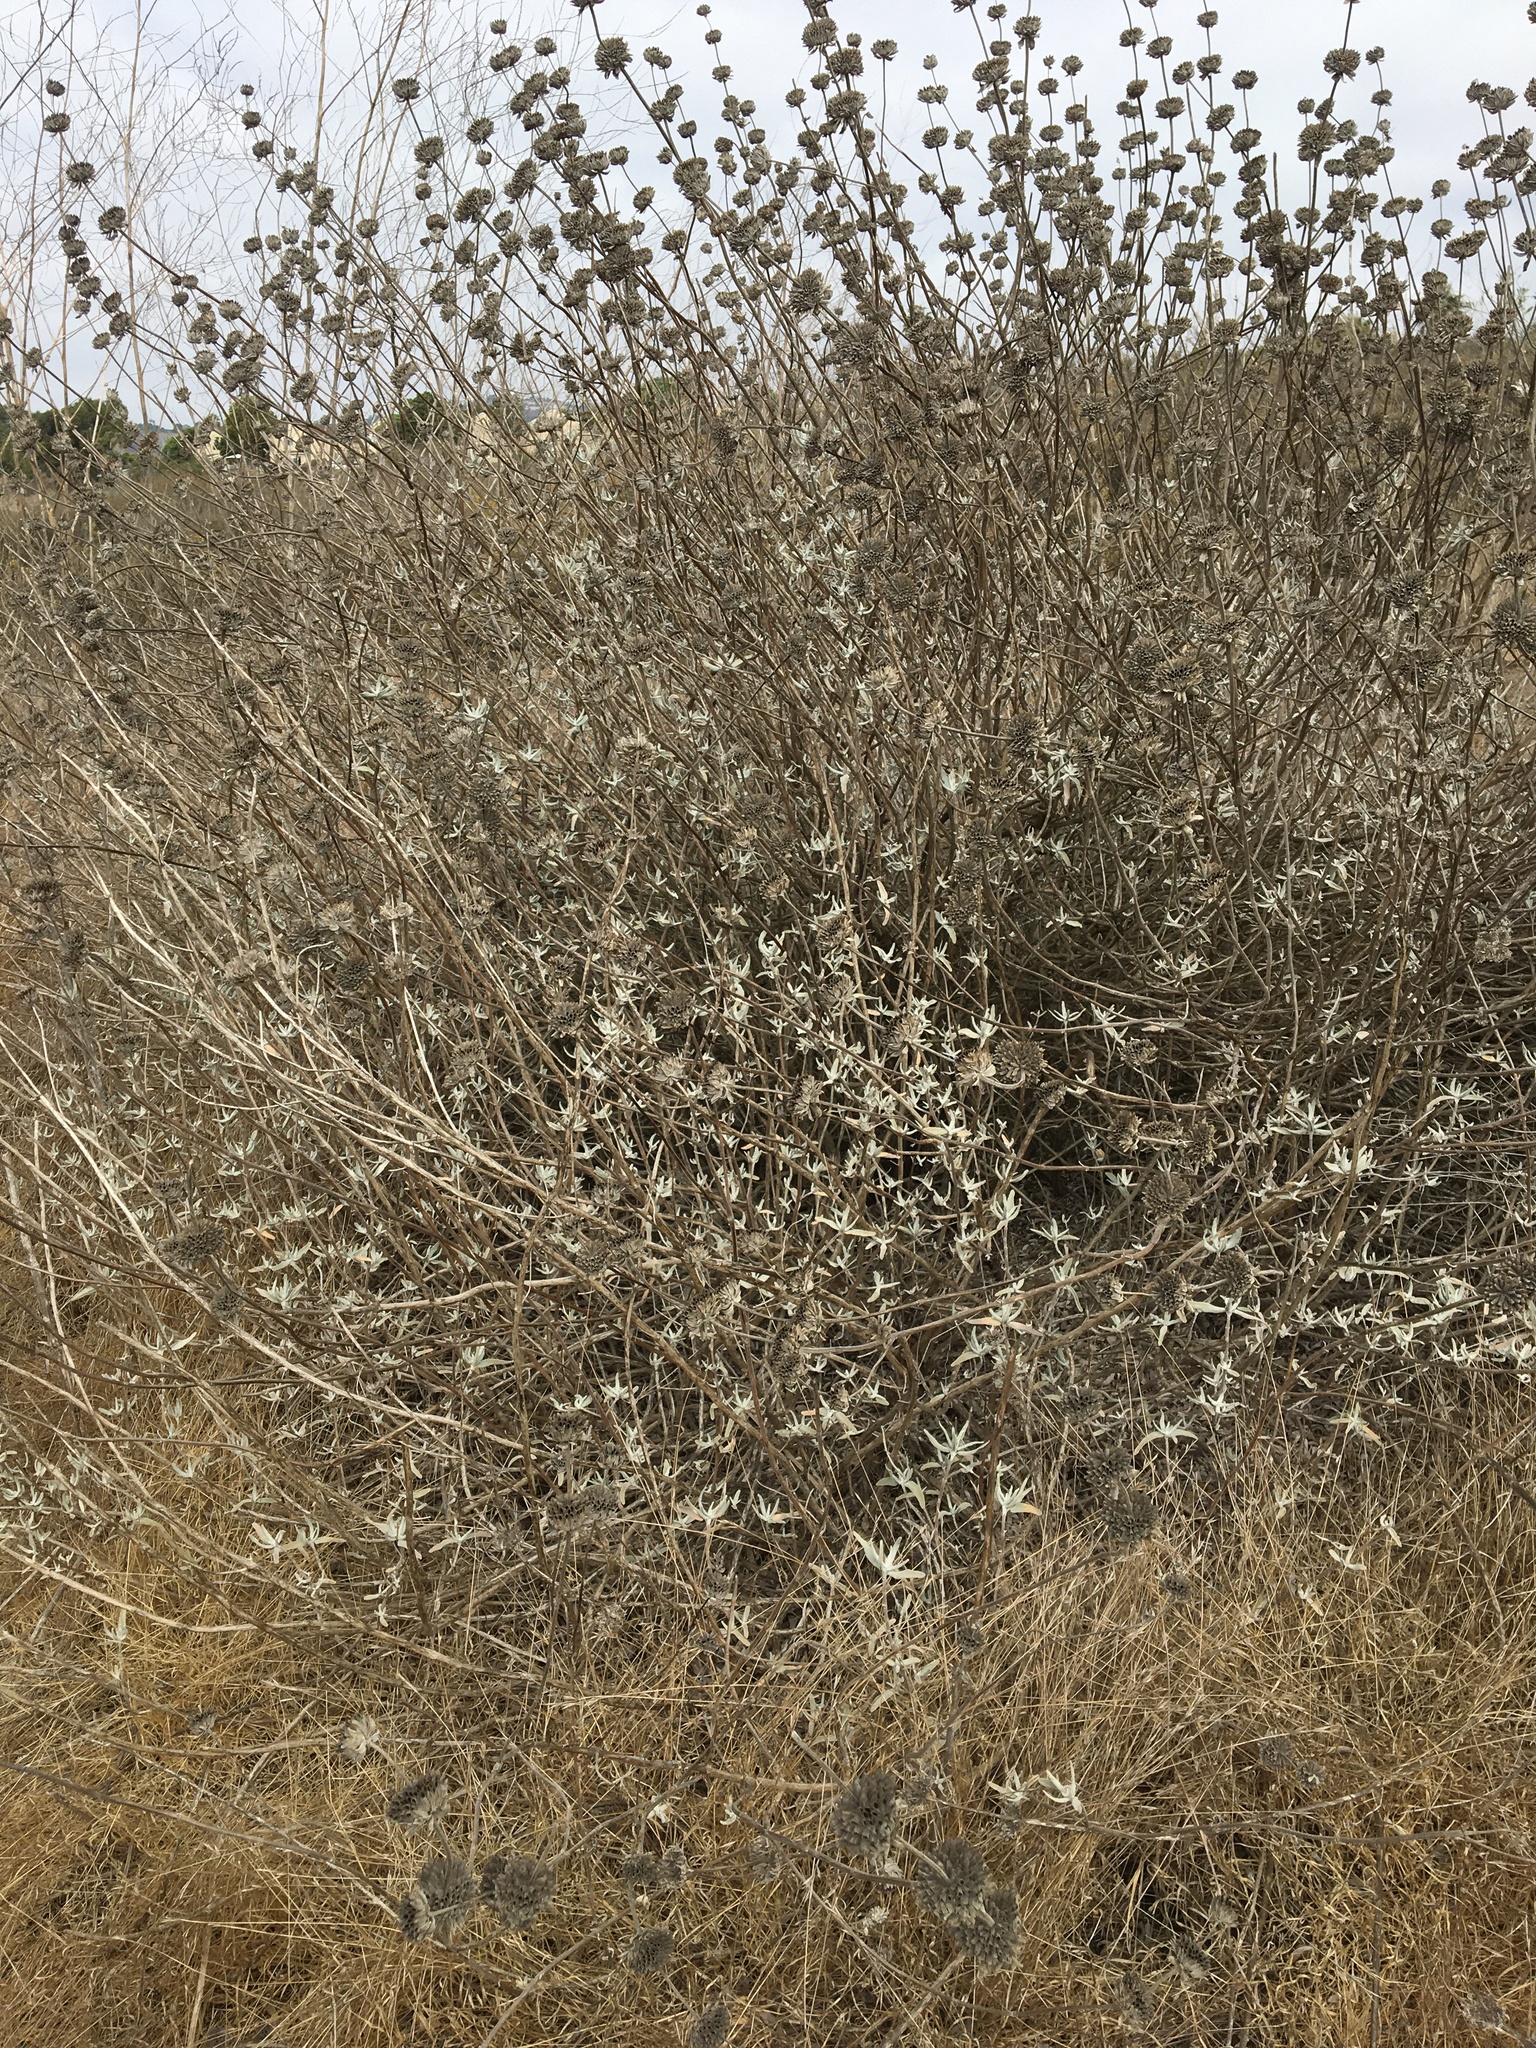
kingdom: Plantae
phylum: Tracheophyta
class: Magnoliopsida
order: Lamiales
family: Lamiaceae
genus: Salvia
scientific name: Salvia leucophylla
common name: Purple sage
